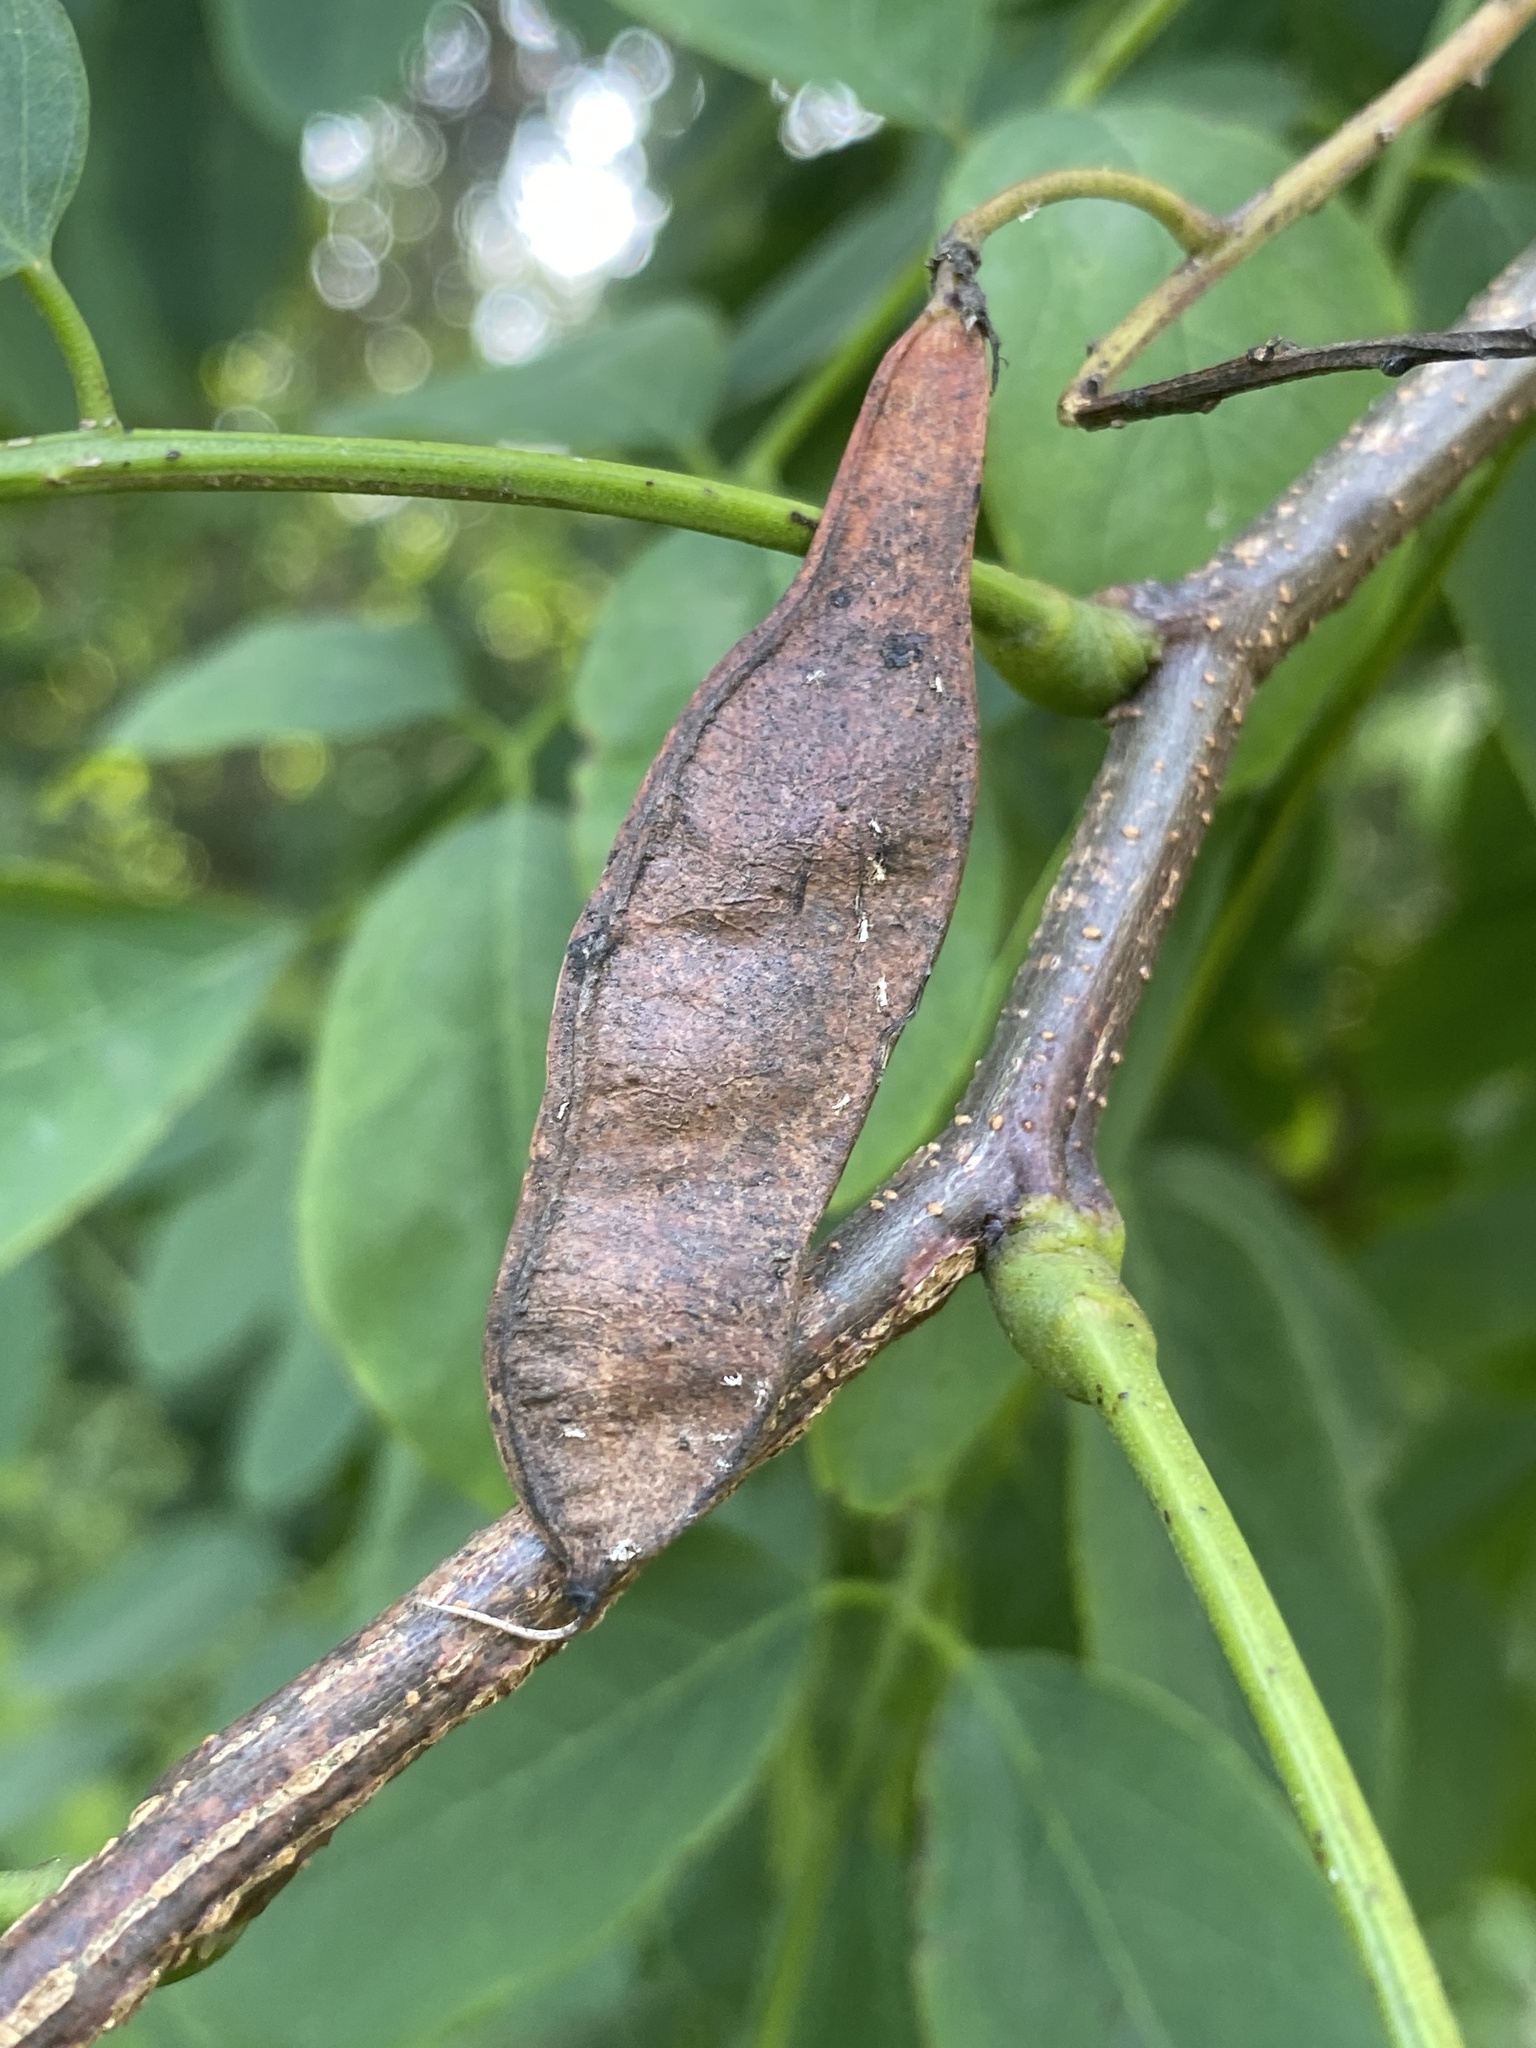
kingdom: Plantae
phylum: Tracheophyta
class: Magnoliopsida
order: Fabales
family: Fabaceae
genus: Robinia
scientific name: Robinia pseudoacacia
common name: Black locust
